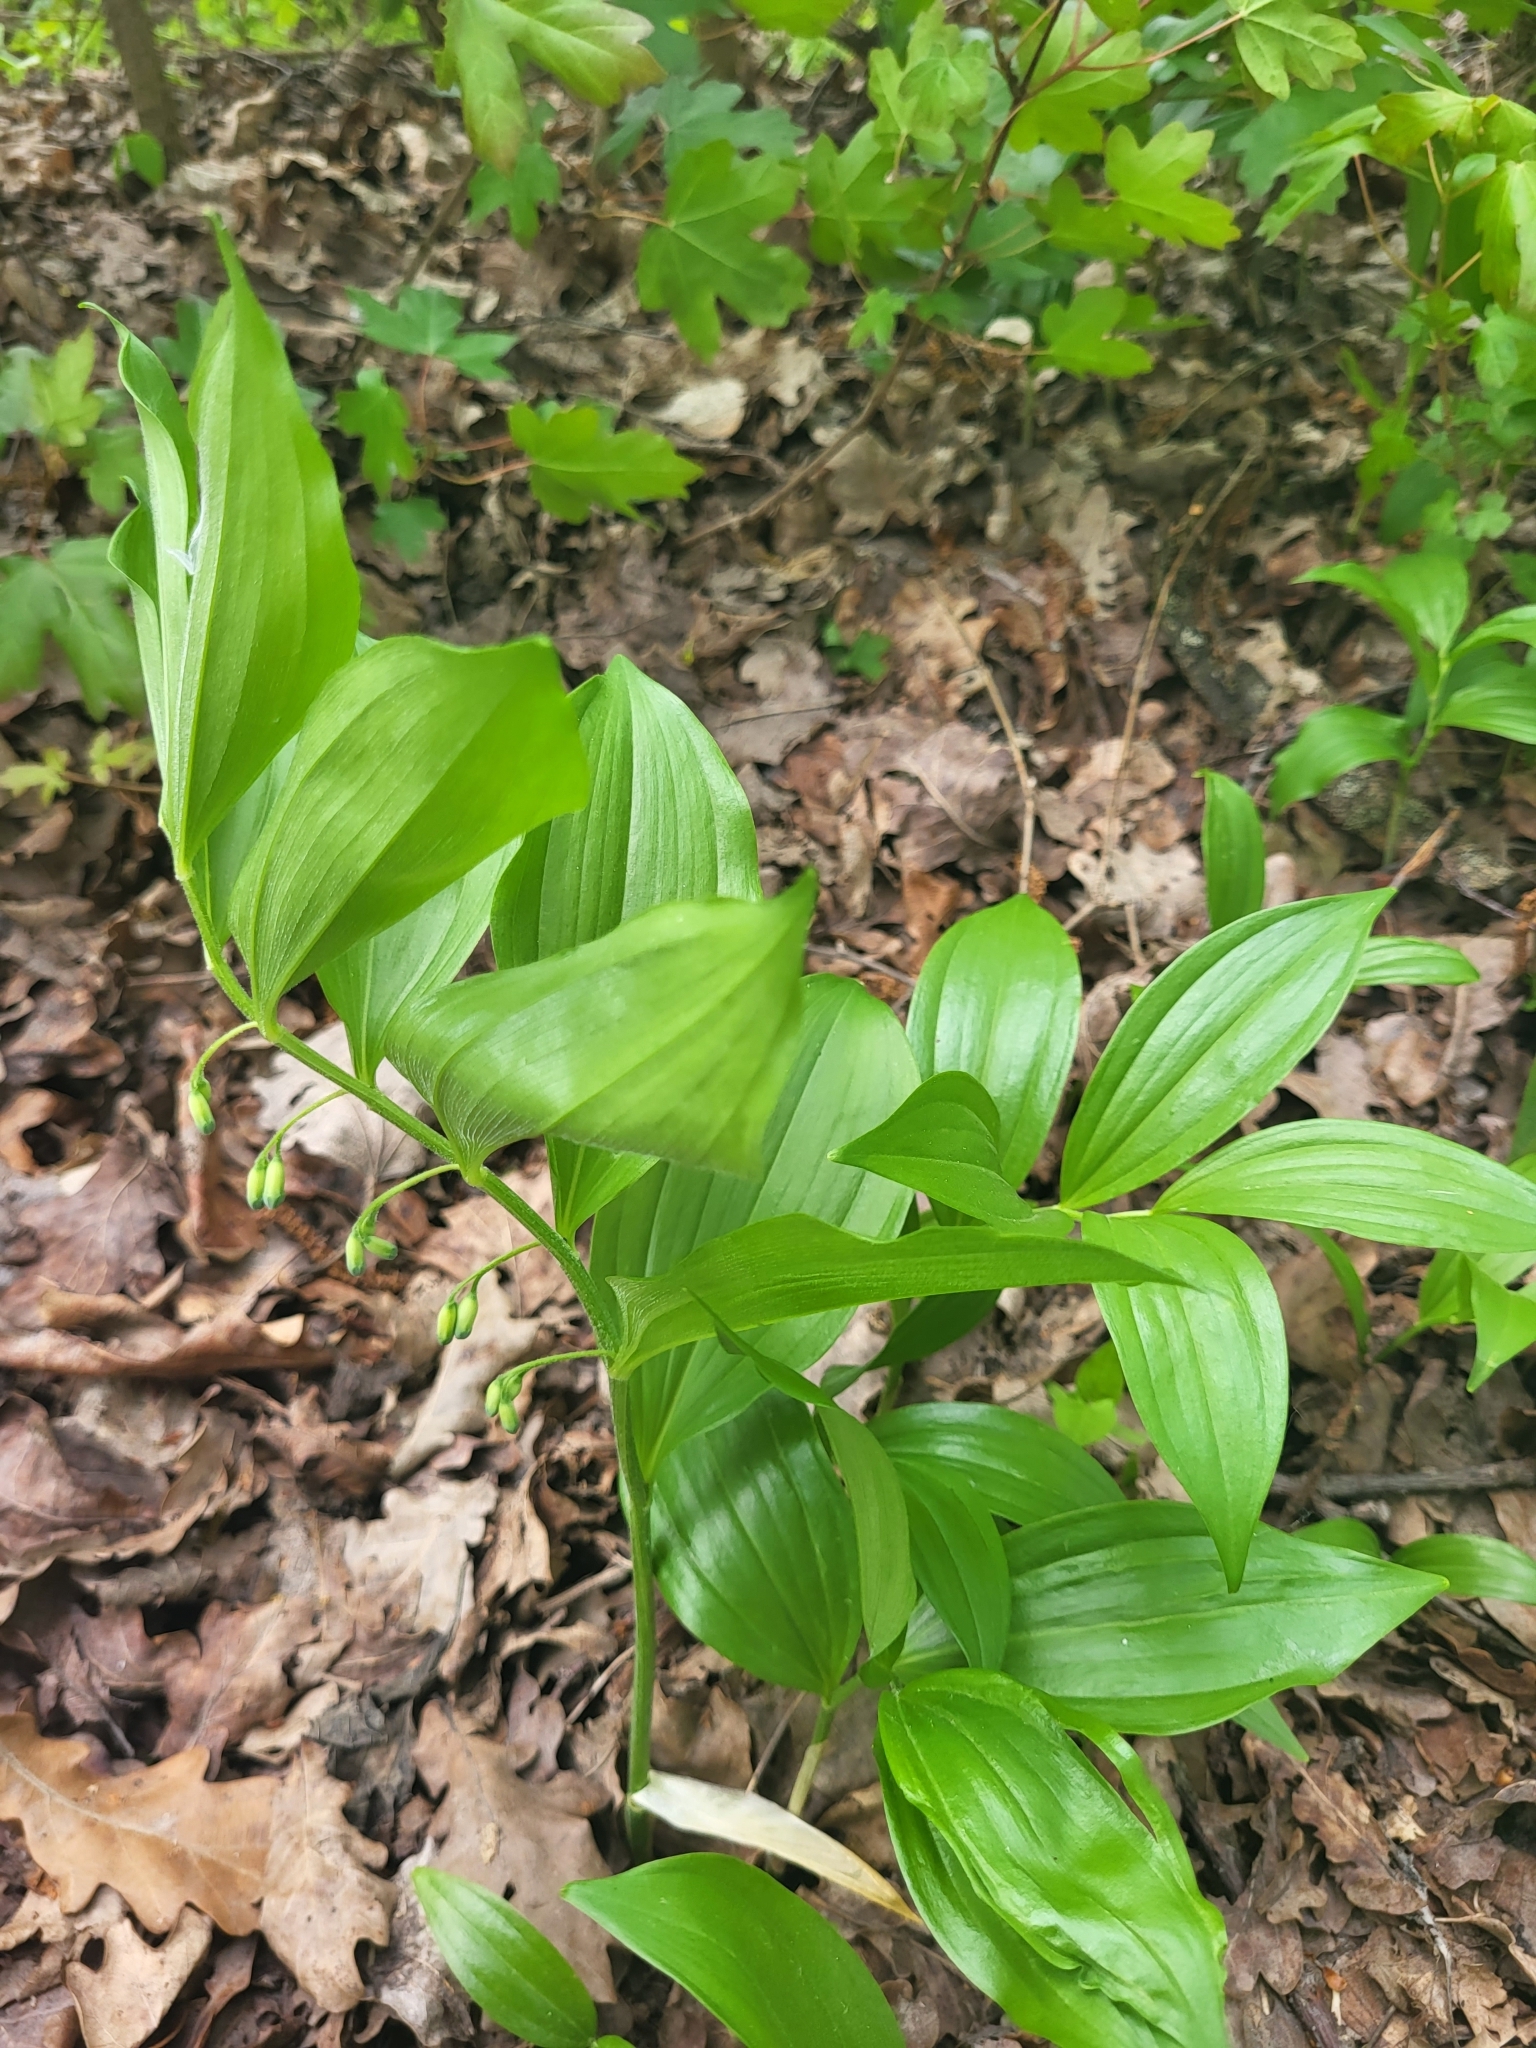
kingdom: Plantae
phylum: Tracheophyta
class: Liliopsida
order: Asparagales
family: Asparagaceae
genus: Polygonatum
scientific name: Polygonatum latifolium
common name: Broadleaf solomon's seal
